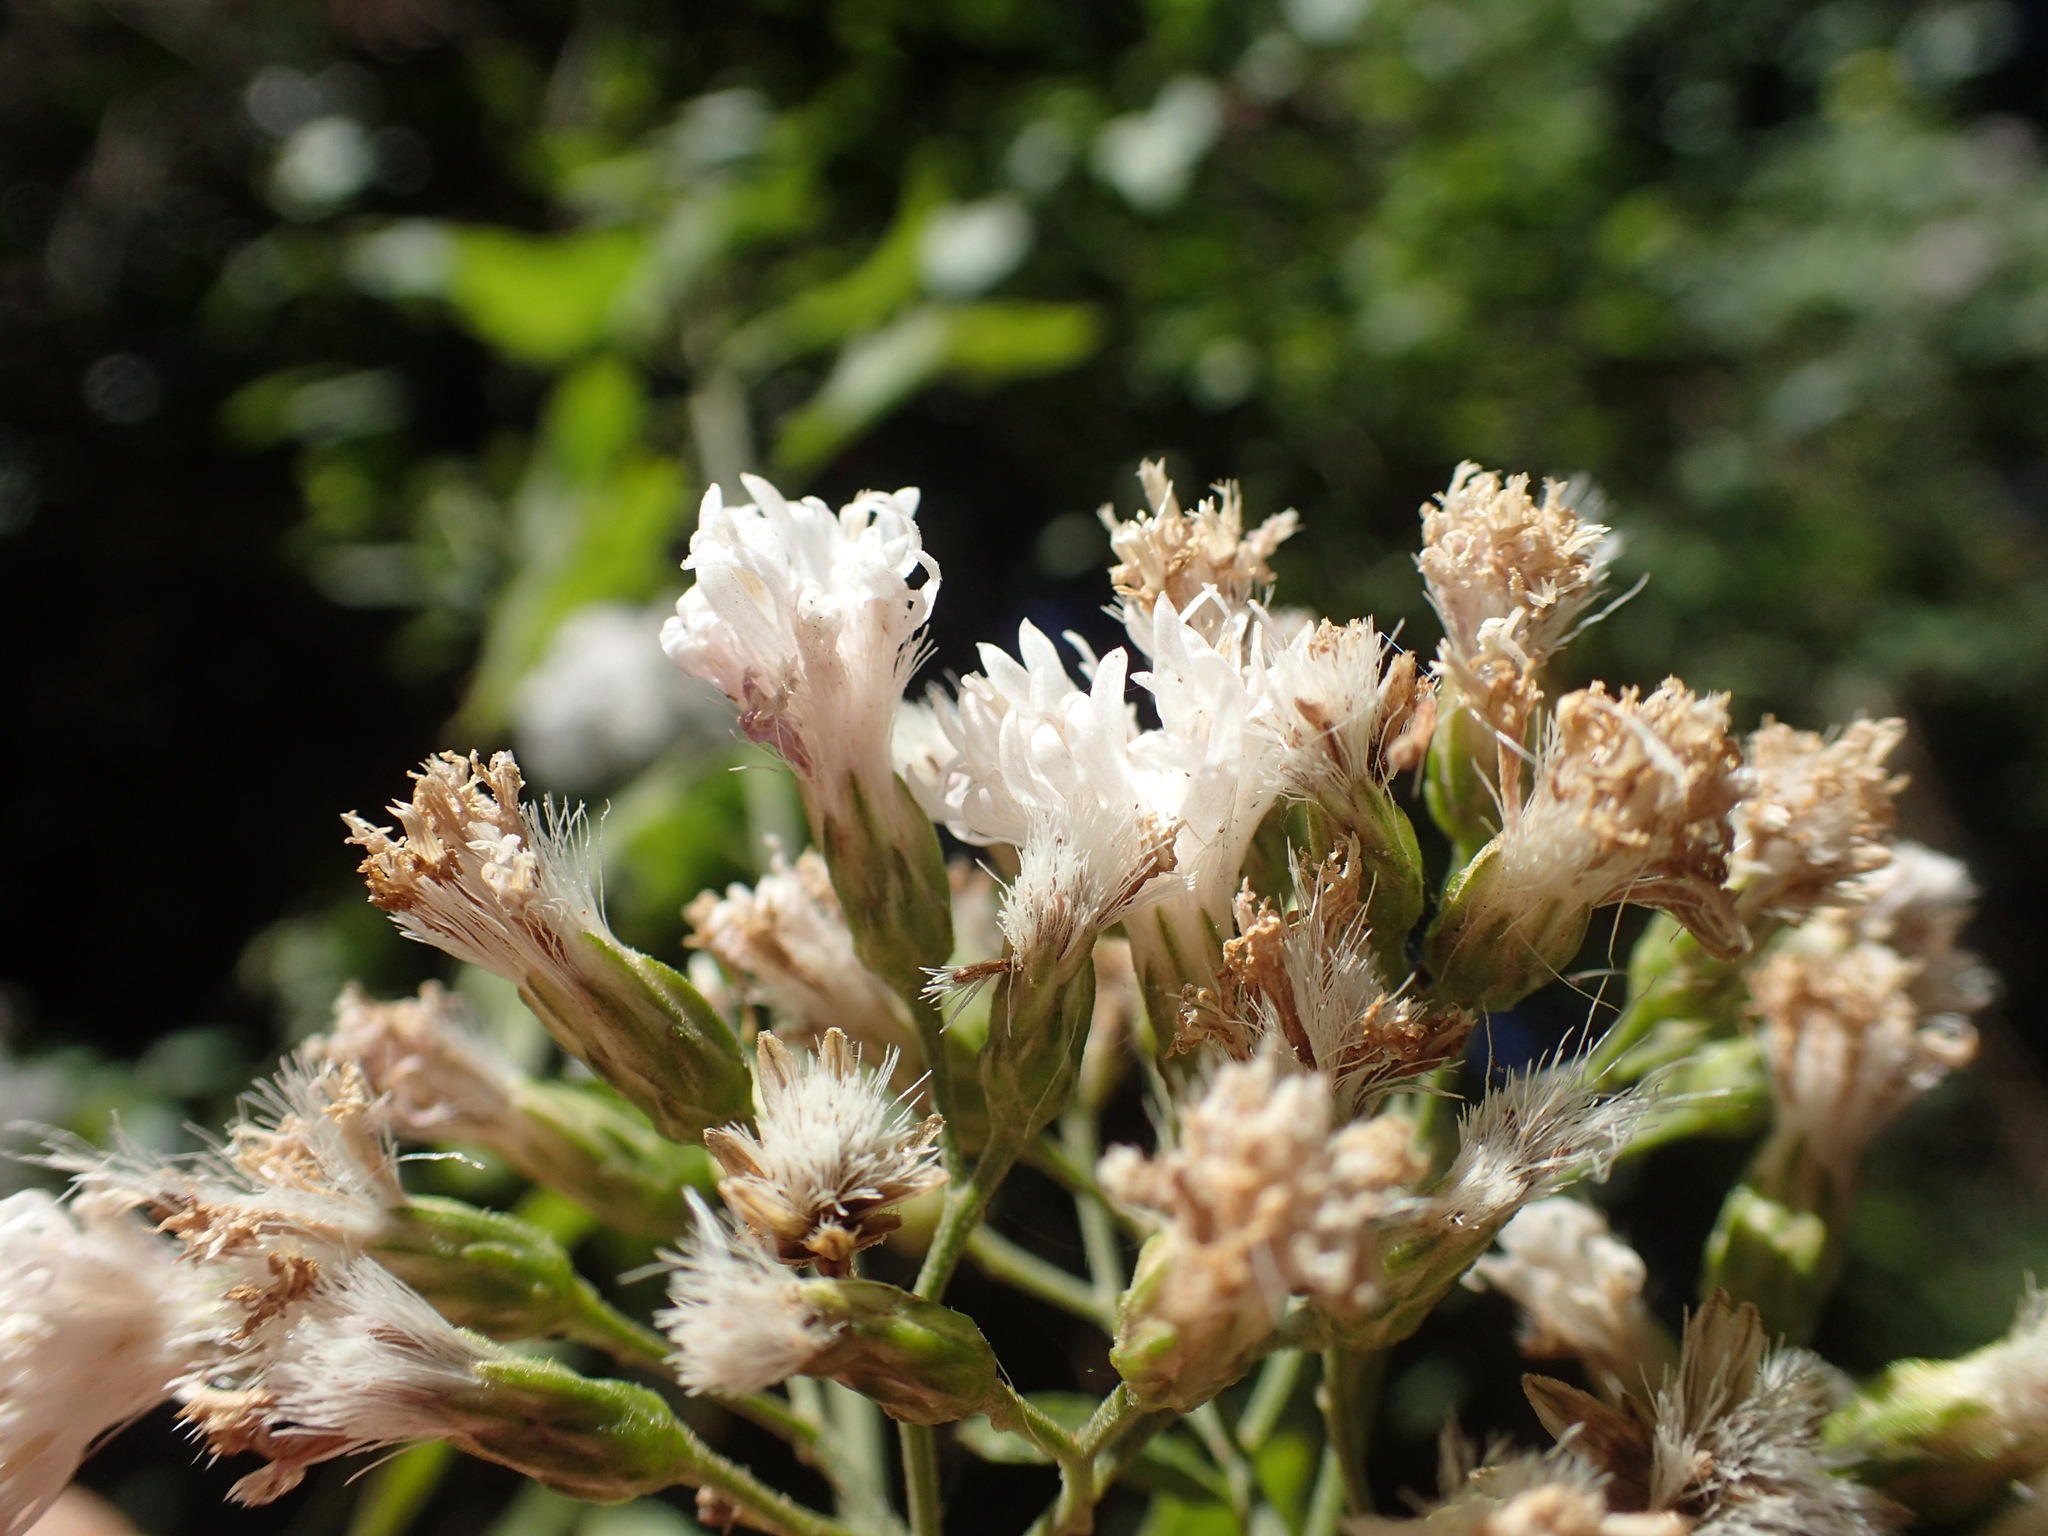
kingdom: Plantae
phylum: Tracheophyta
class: Magnoliopsida
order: Asterales
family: Asteraceae
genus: Distephanus
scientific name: Distephanus angulifolius
